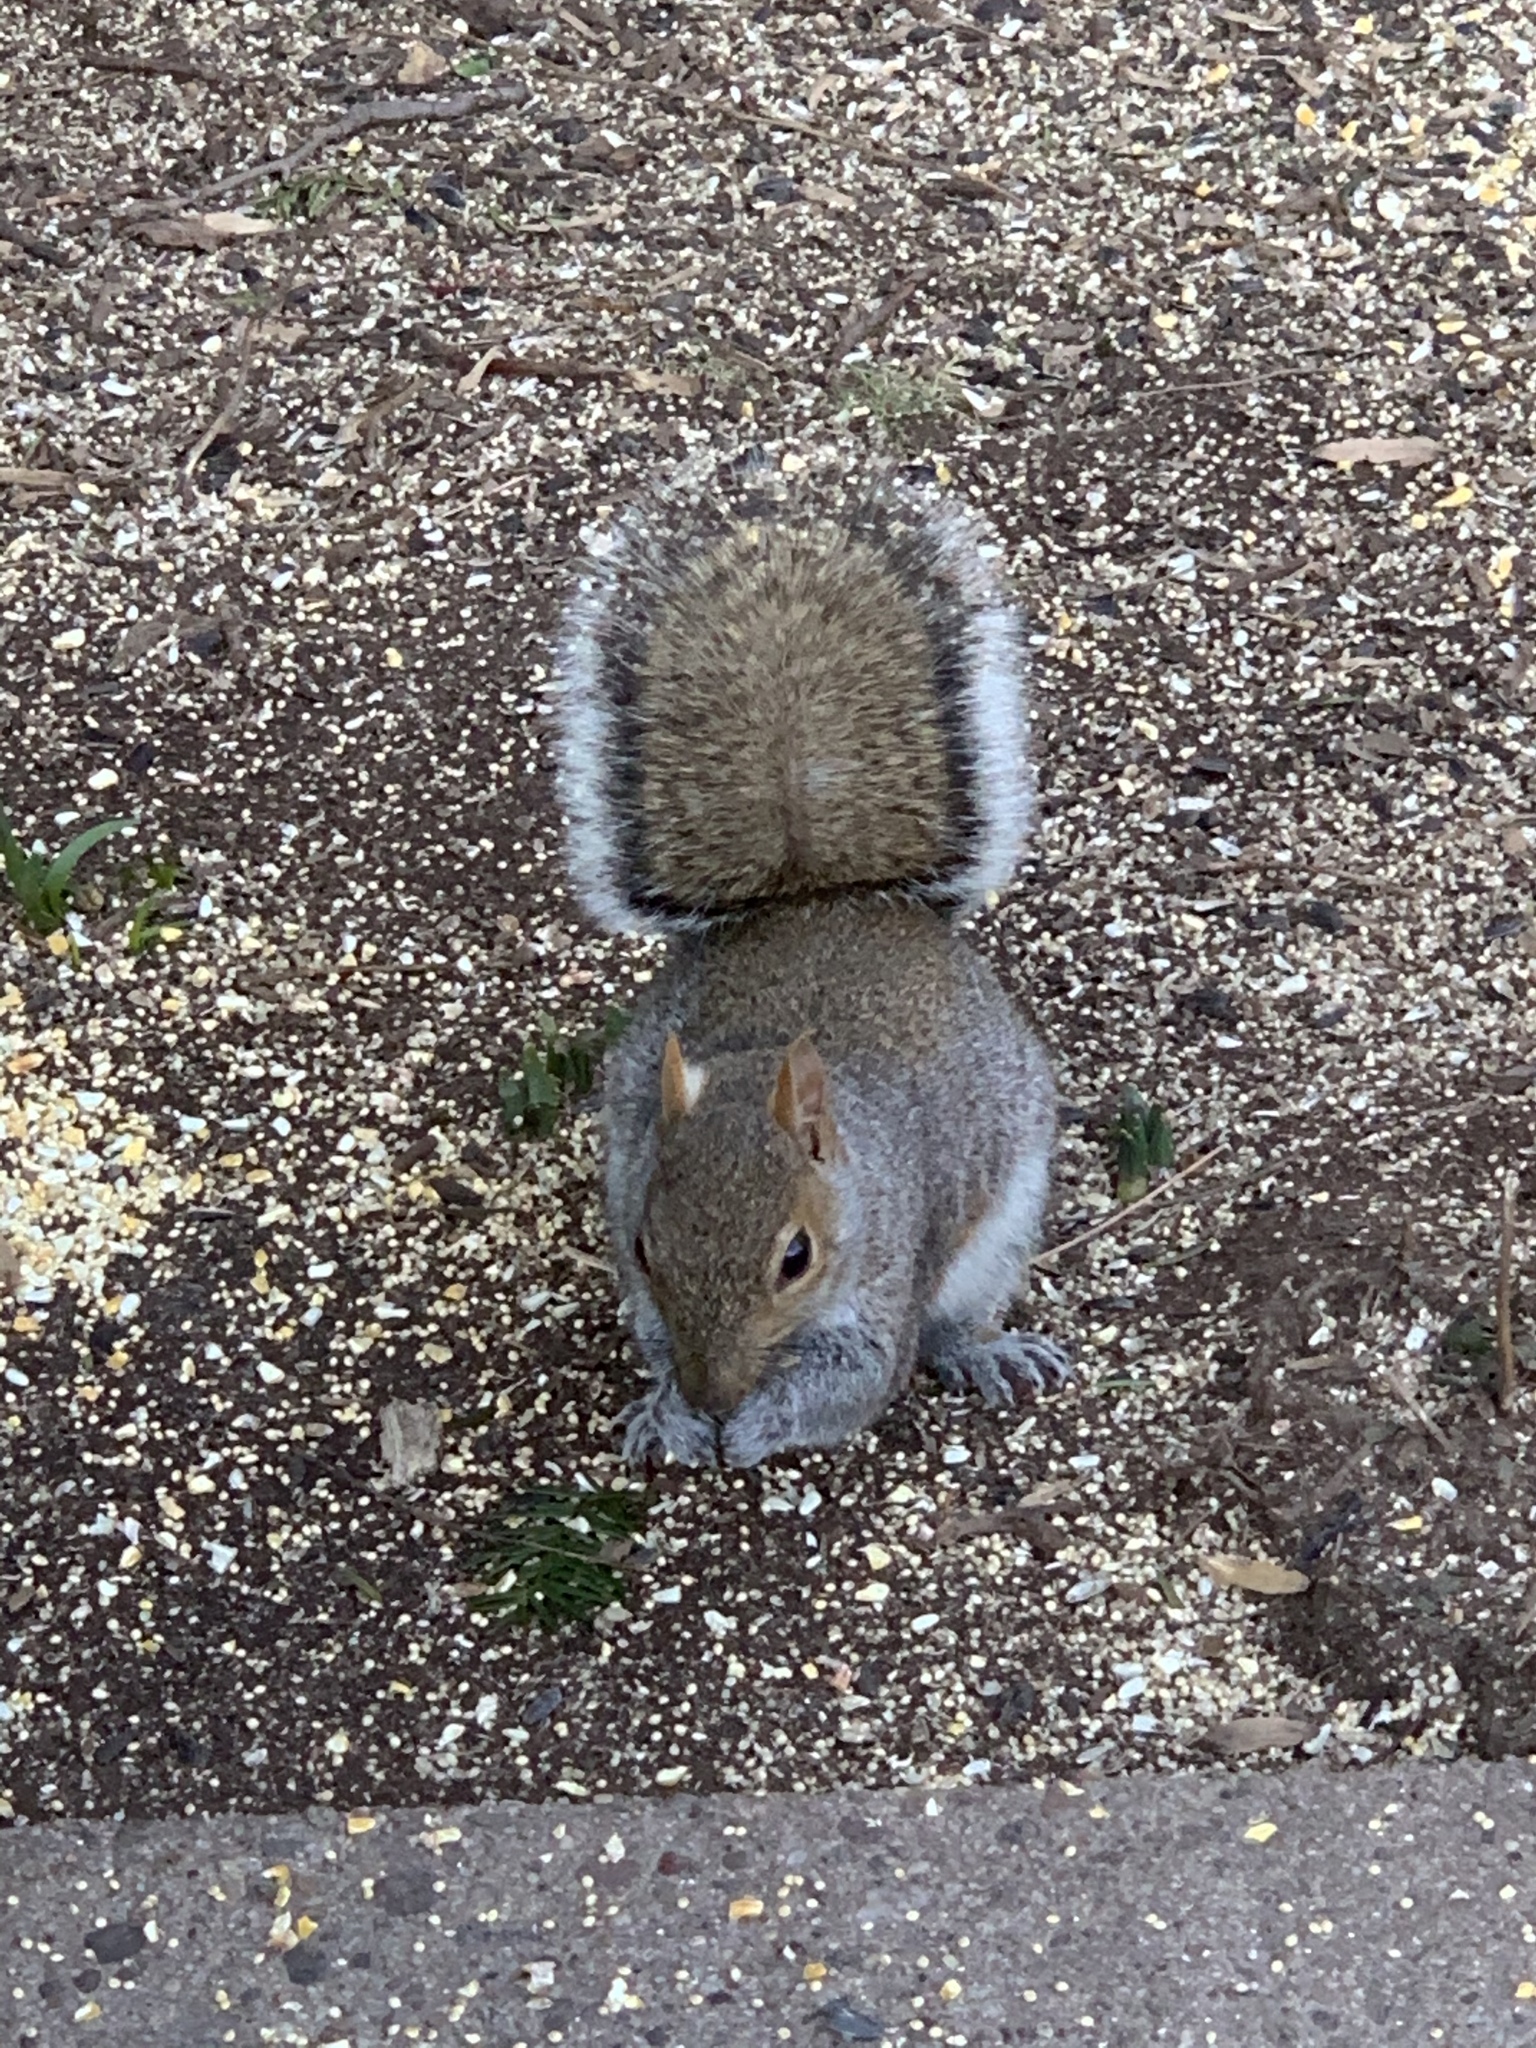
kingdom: Animalia
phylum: Chordata
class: Mammalia
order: Rodentia
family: Sciuridae
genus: Sciurus
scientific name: Sciurus carolinensis
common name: Eastern gray squirrel
